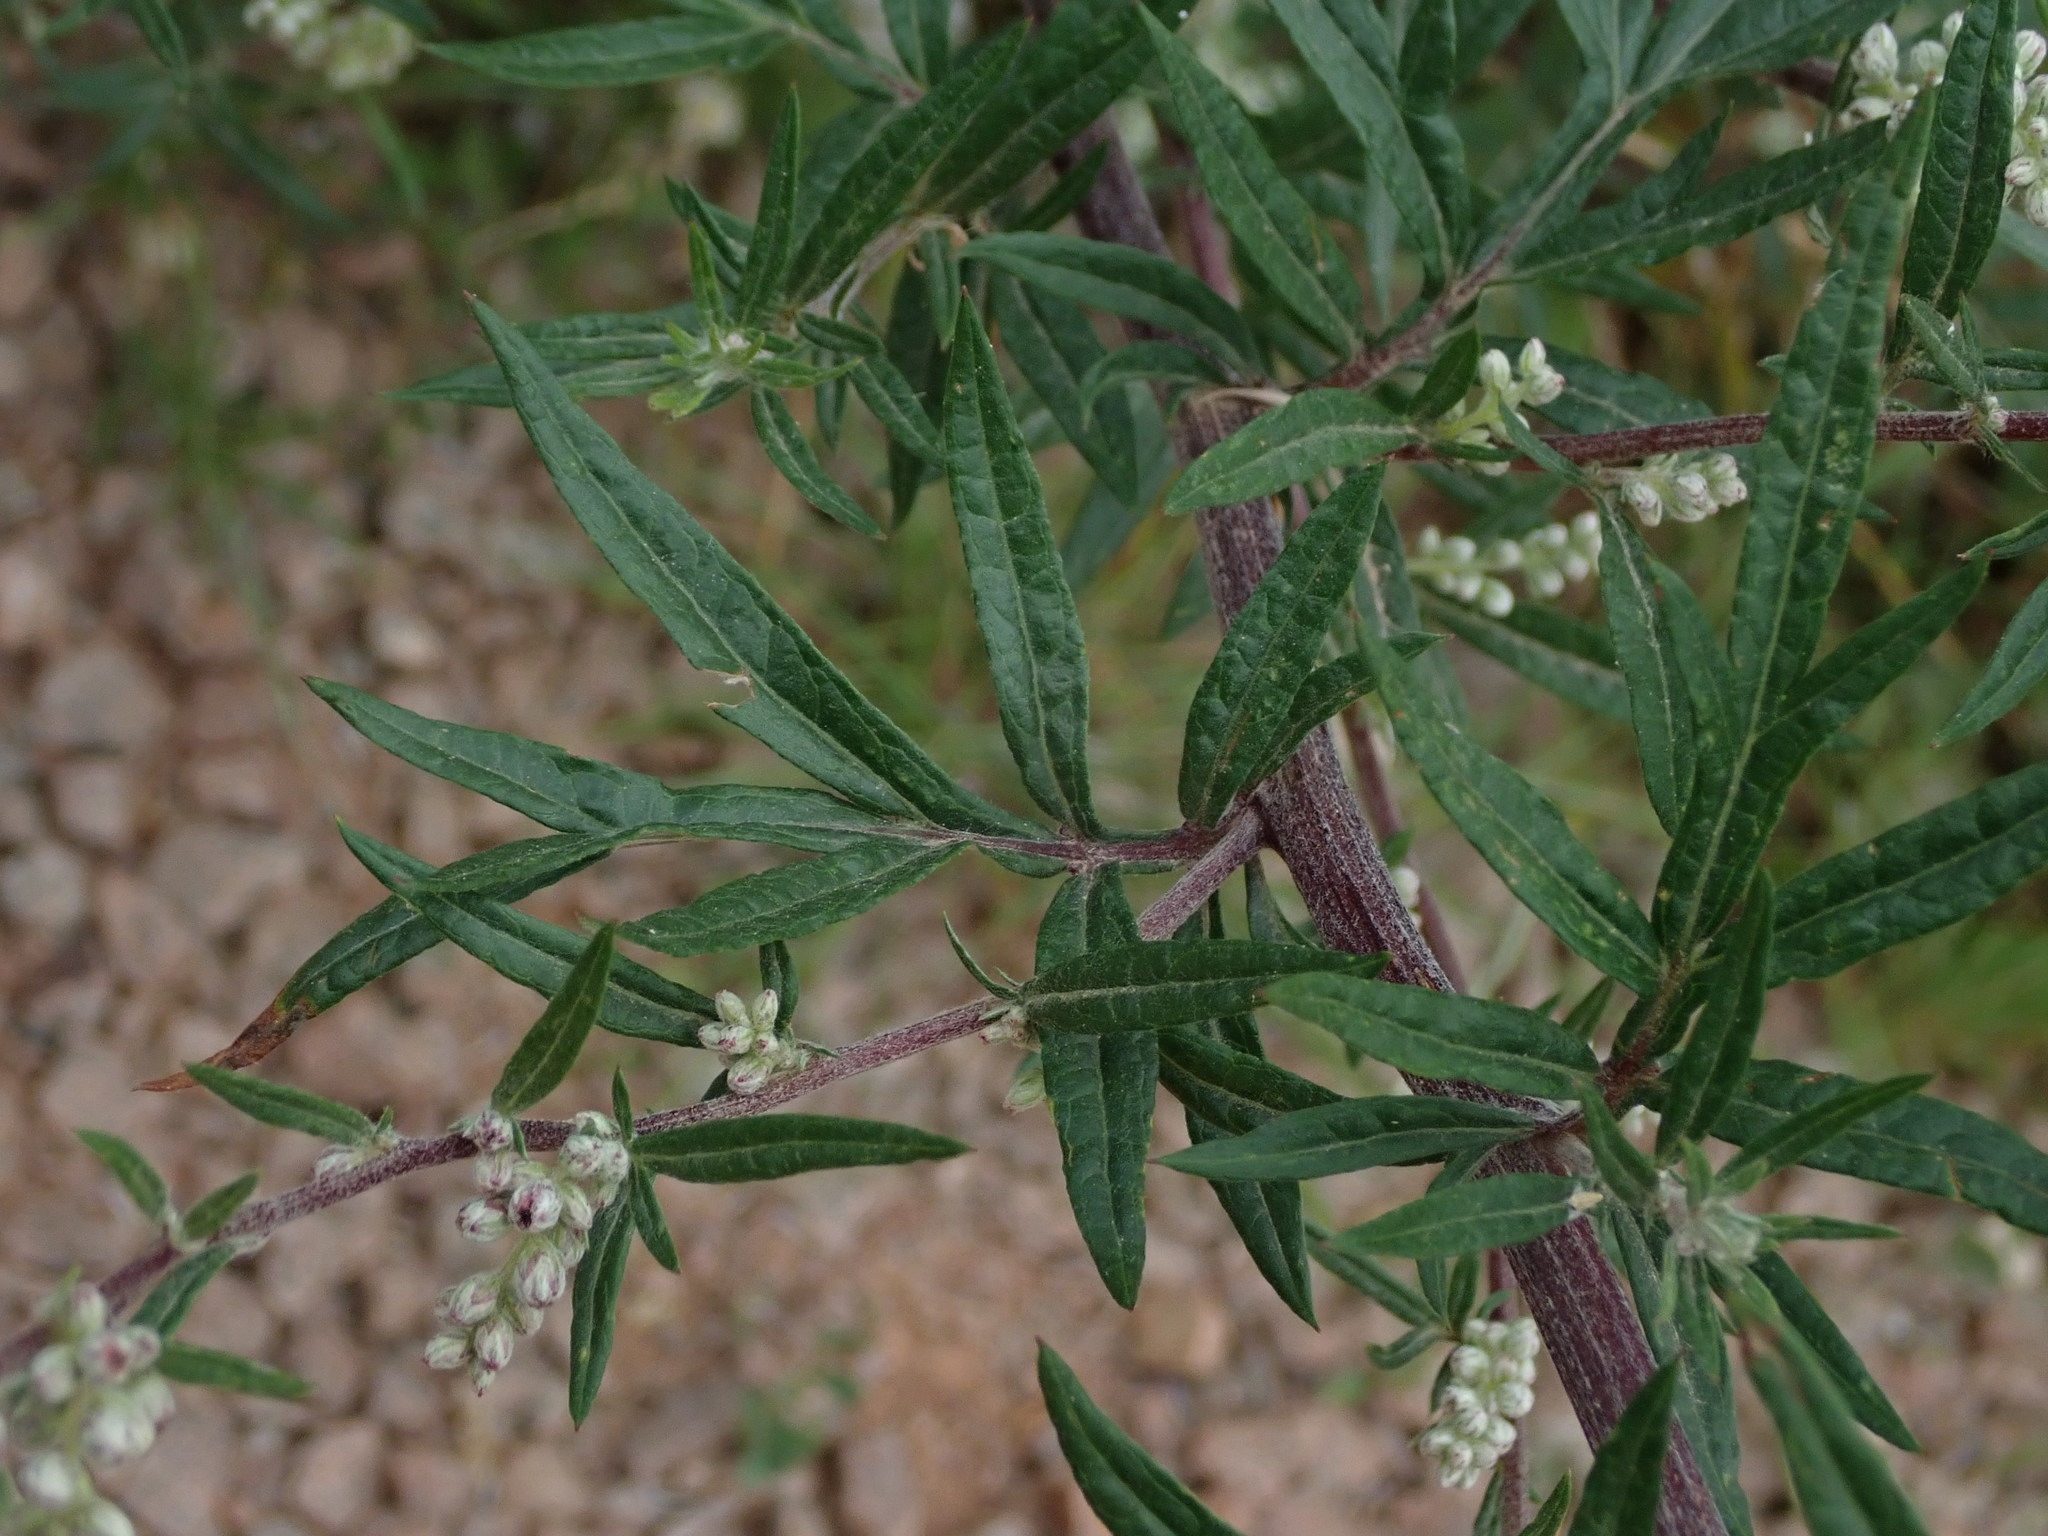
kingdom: Plantae
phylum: Tracheophyta
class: Magnoliopsida
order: Asterales
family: Asteraceae
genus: Artemisia
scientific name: Artemisia vulgaris
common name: Mugwort
